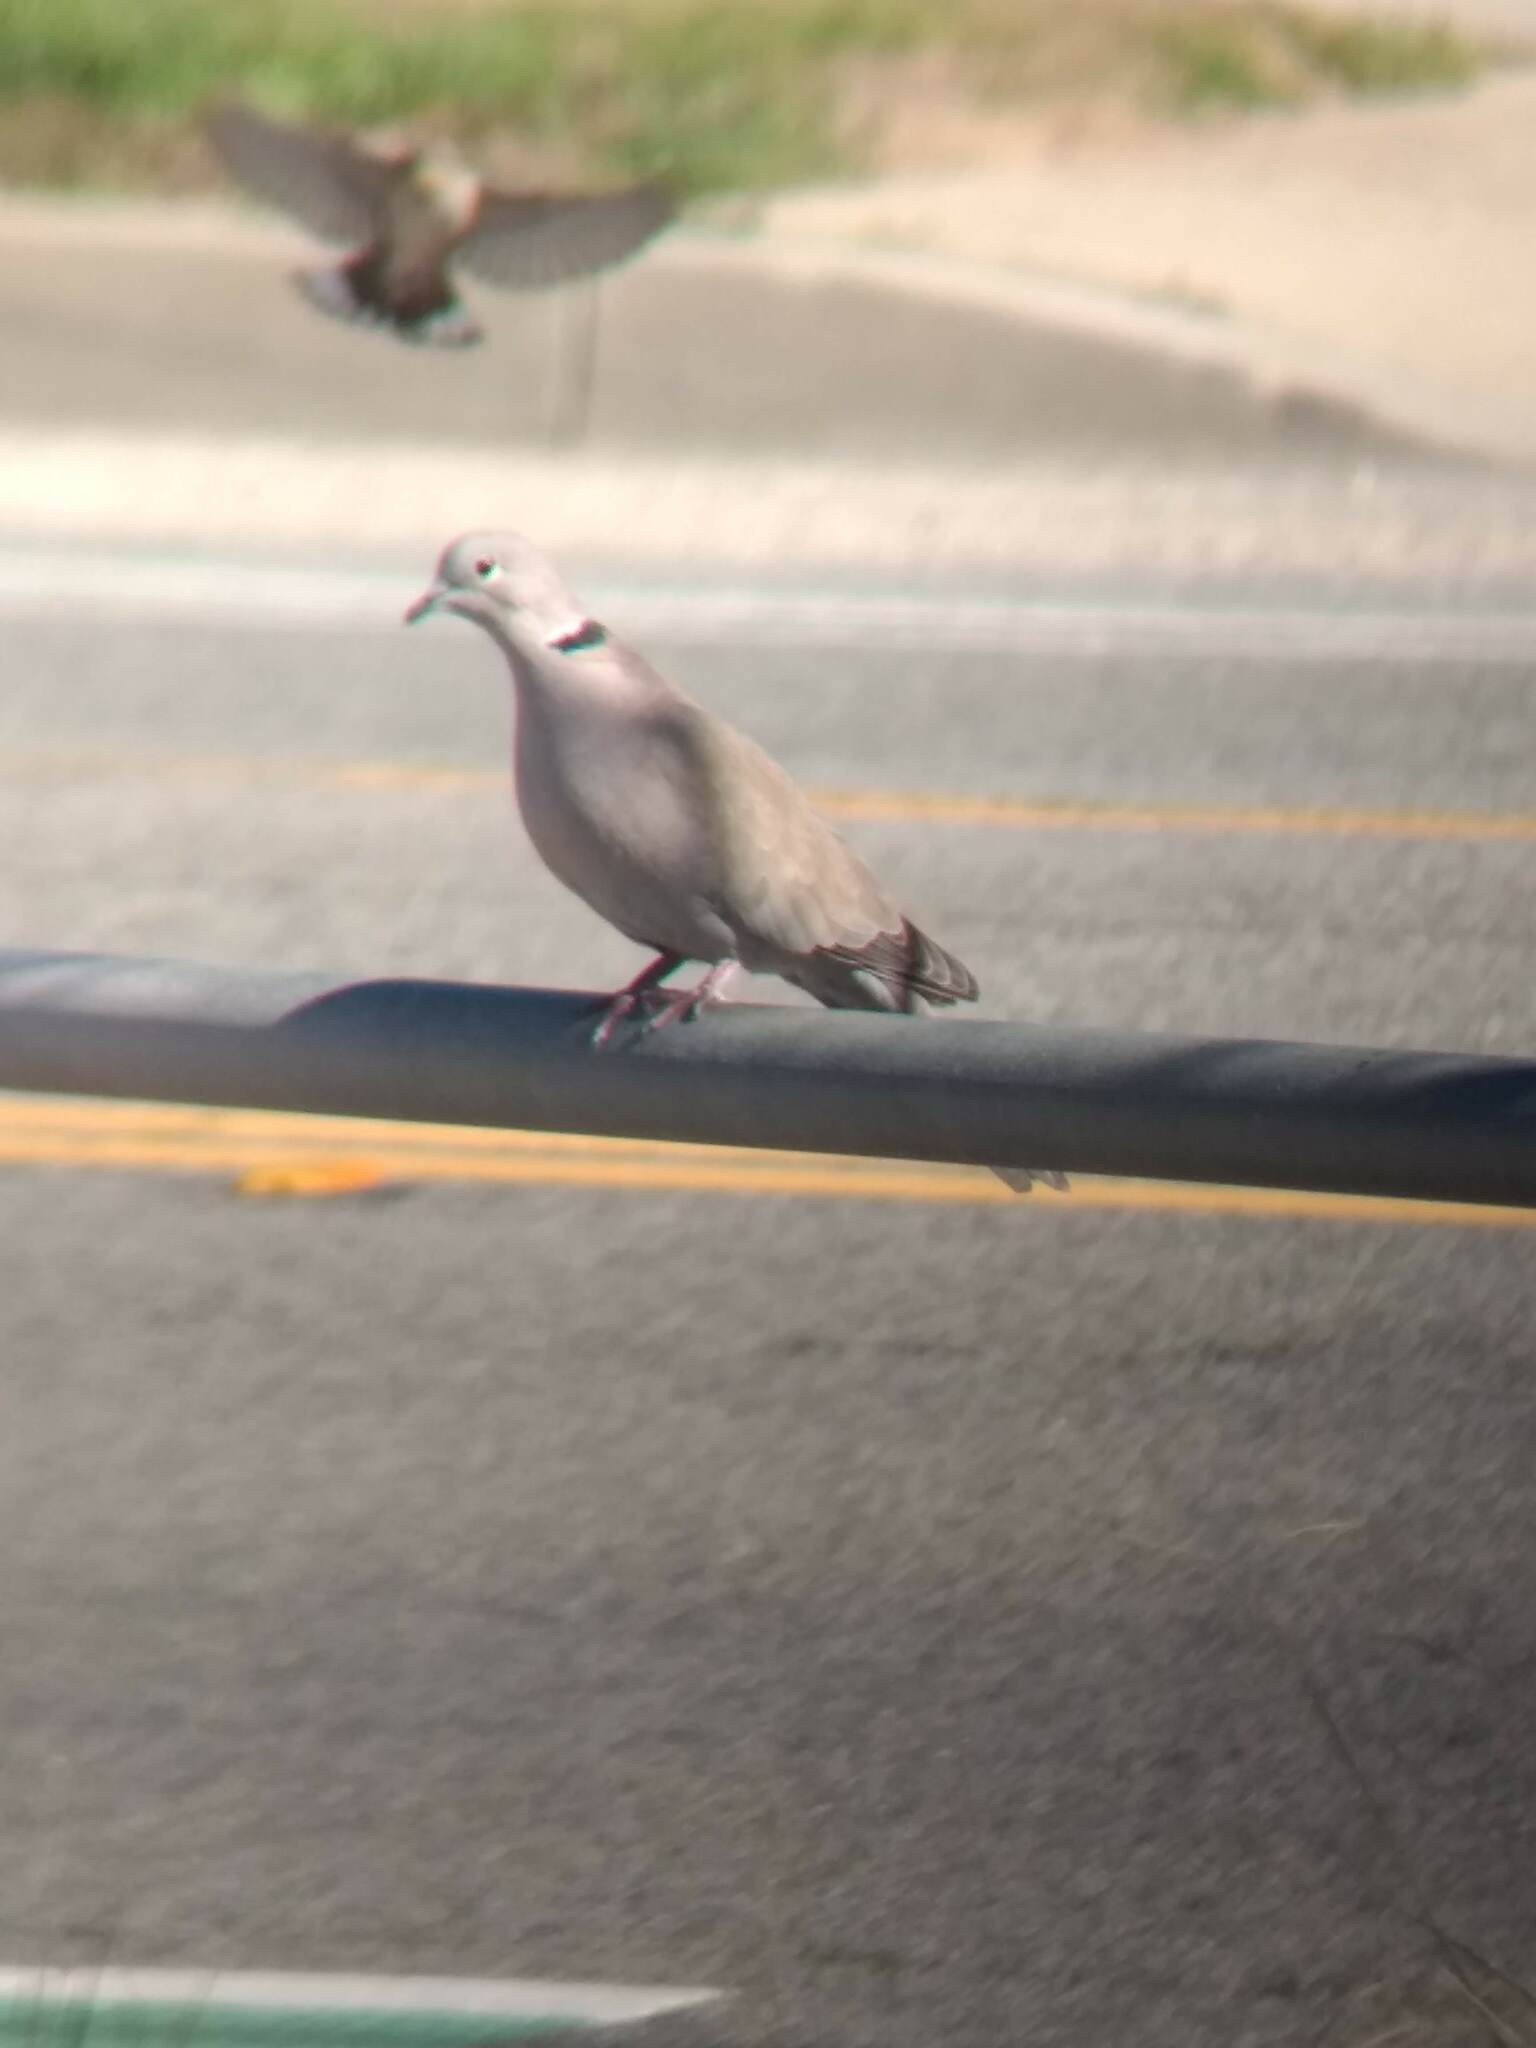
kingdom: Animalia
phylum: Chordata
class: Aves
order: Columbiformes
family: Columbidae
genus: Streptopelia
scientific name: Streptopelia decaocto
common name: Eurasian collared dove
